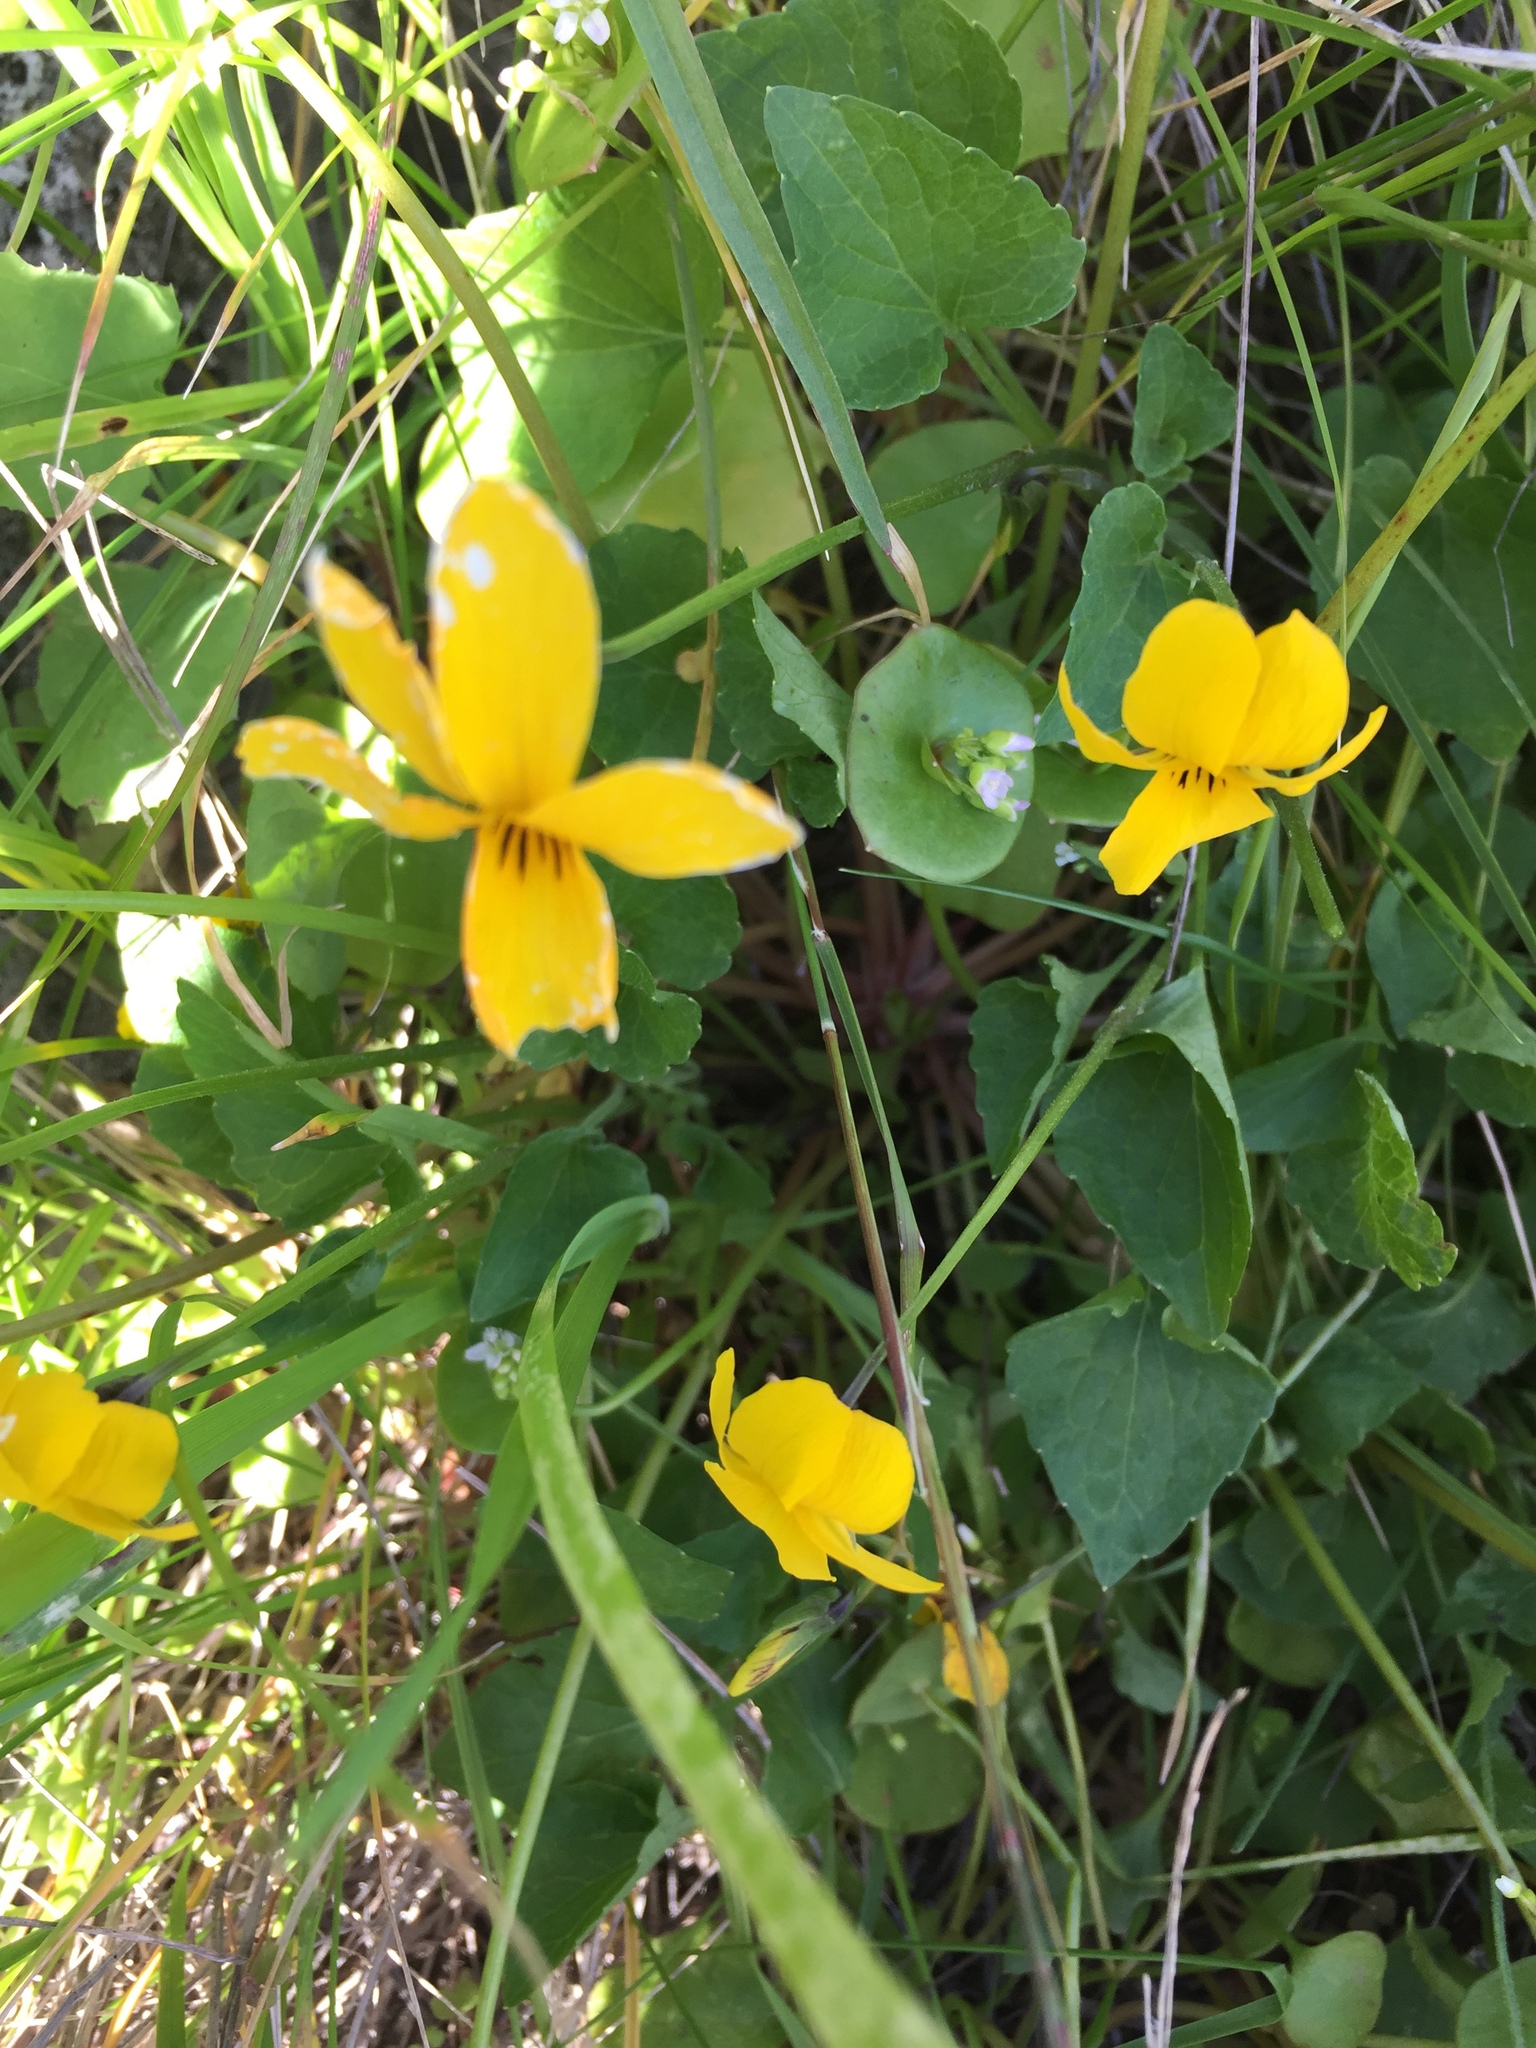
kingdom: Plantae
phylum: Tracheophyta
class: Magnoliopsida
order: Malpighiales
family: Violaceae
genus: Viola
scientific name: Viola pedunculata
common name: California golden violet
